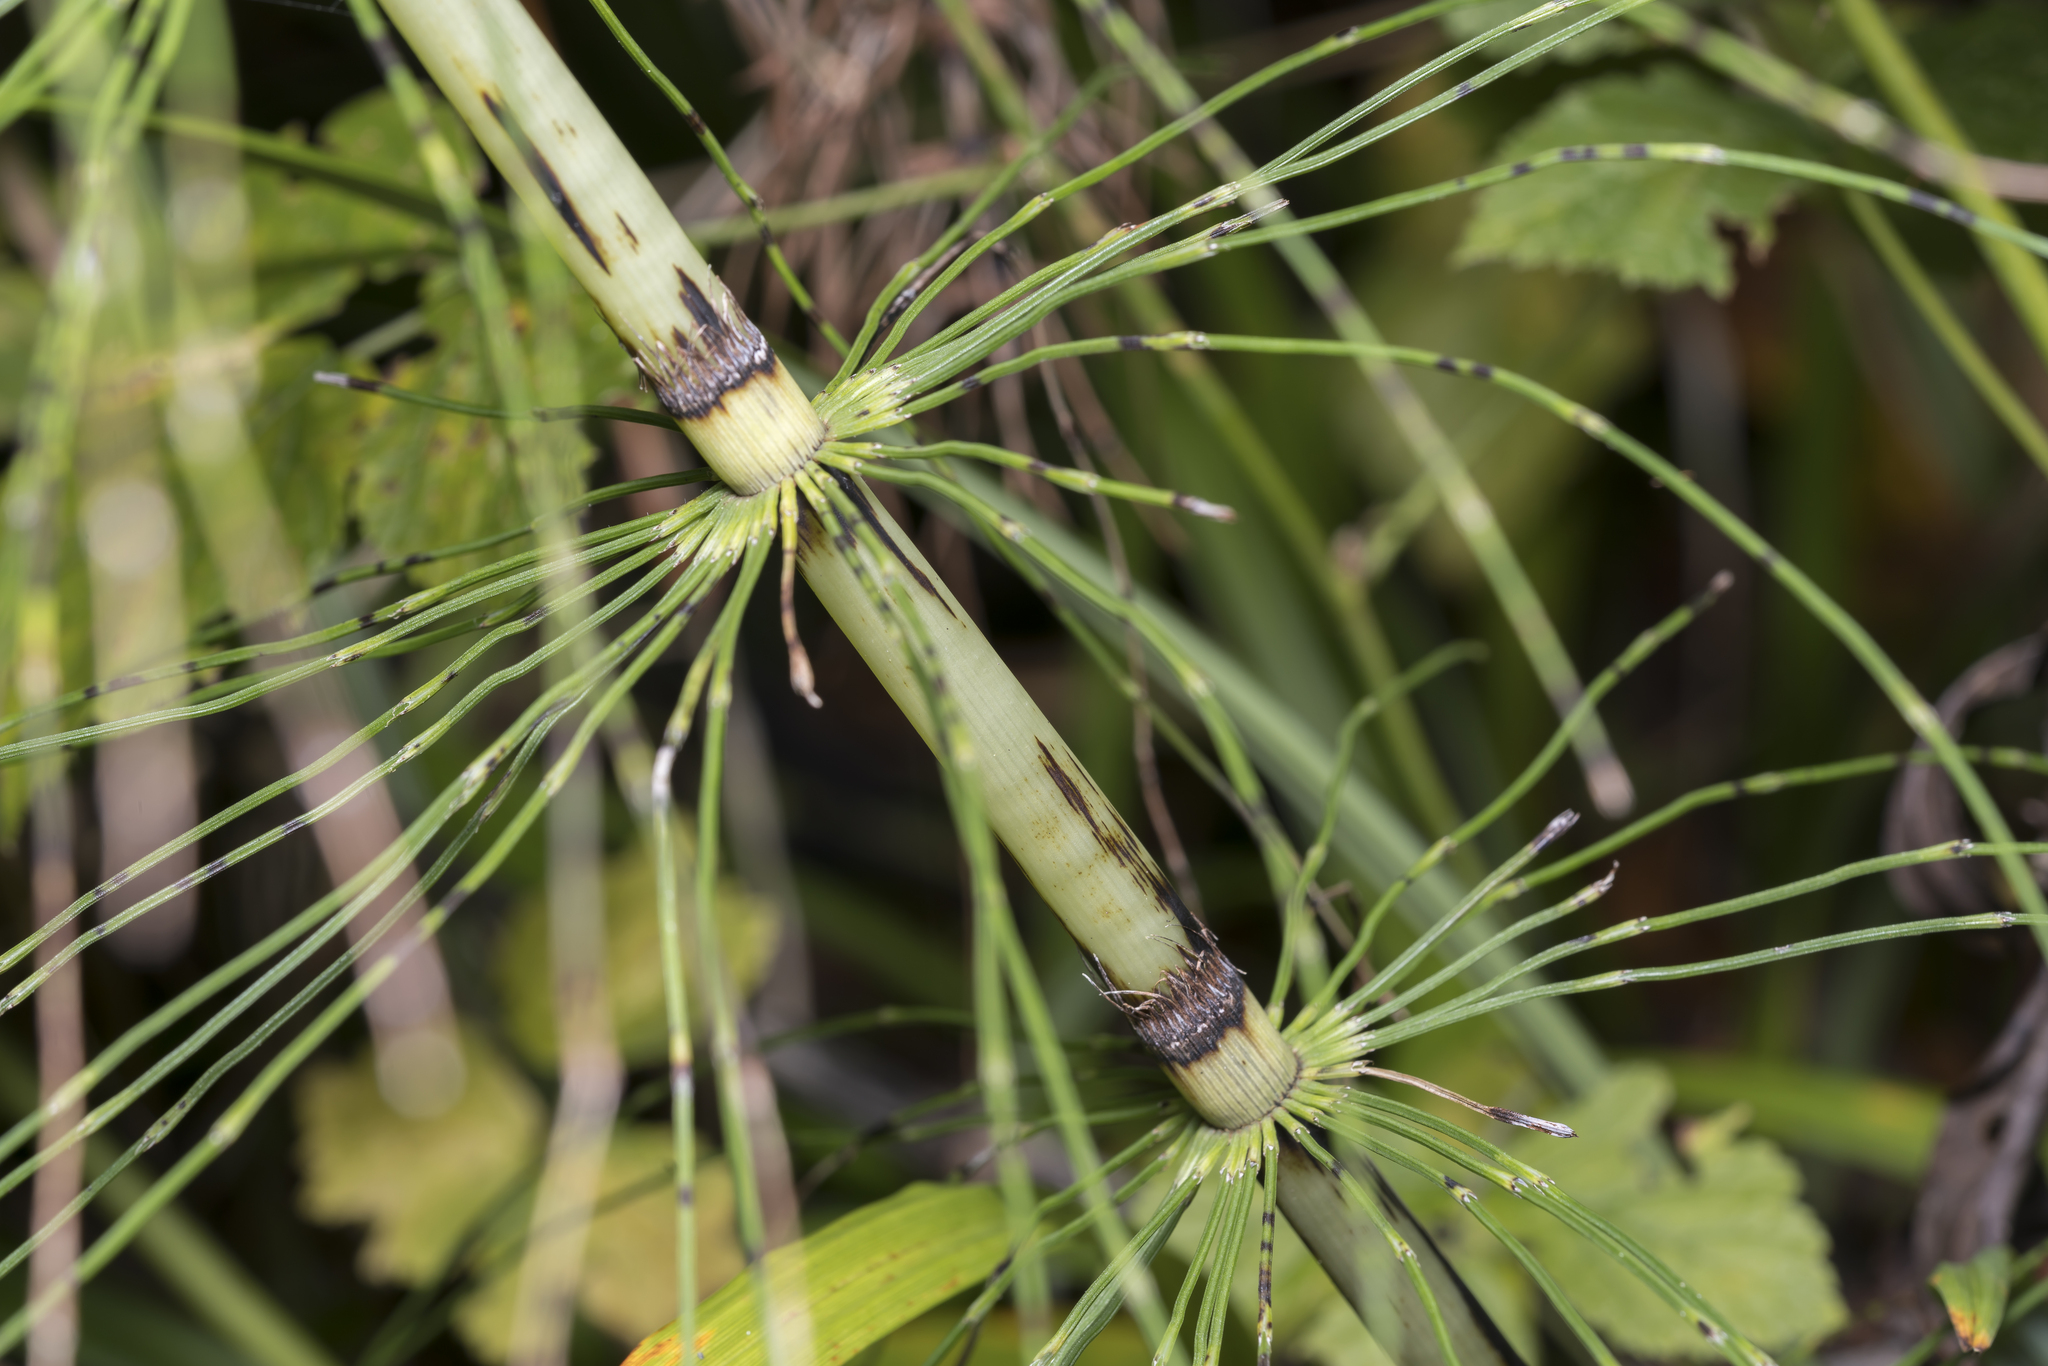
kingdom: Plantae
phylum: Tracheophyta
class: Polypodiopsida
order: Equisetales
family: Equisetaceae
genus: Equisetum
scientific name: Equisetum telmateia
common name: Great horsetail
